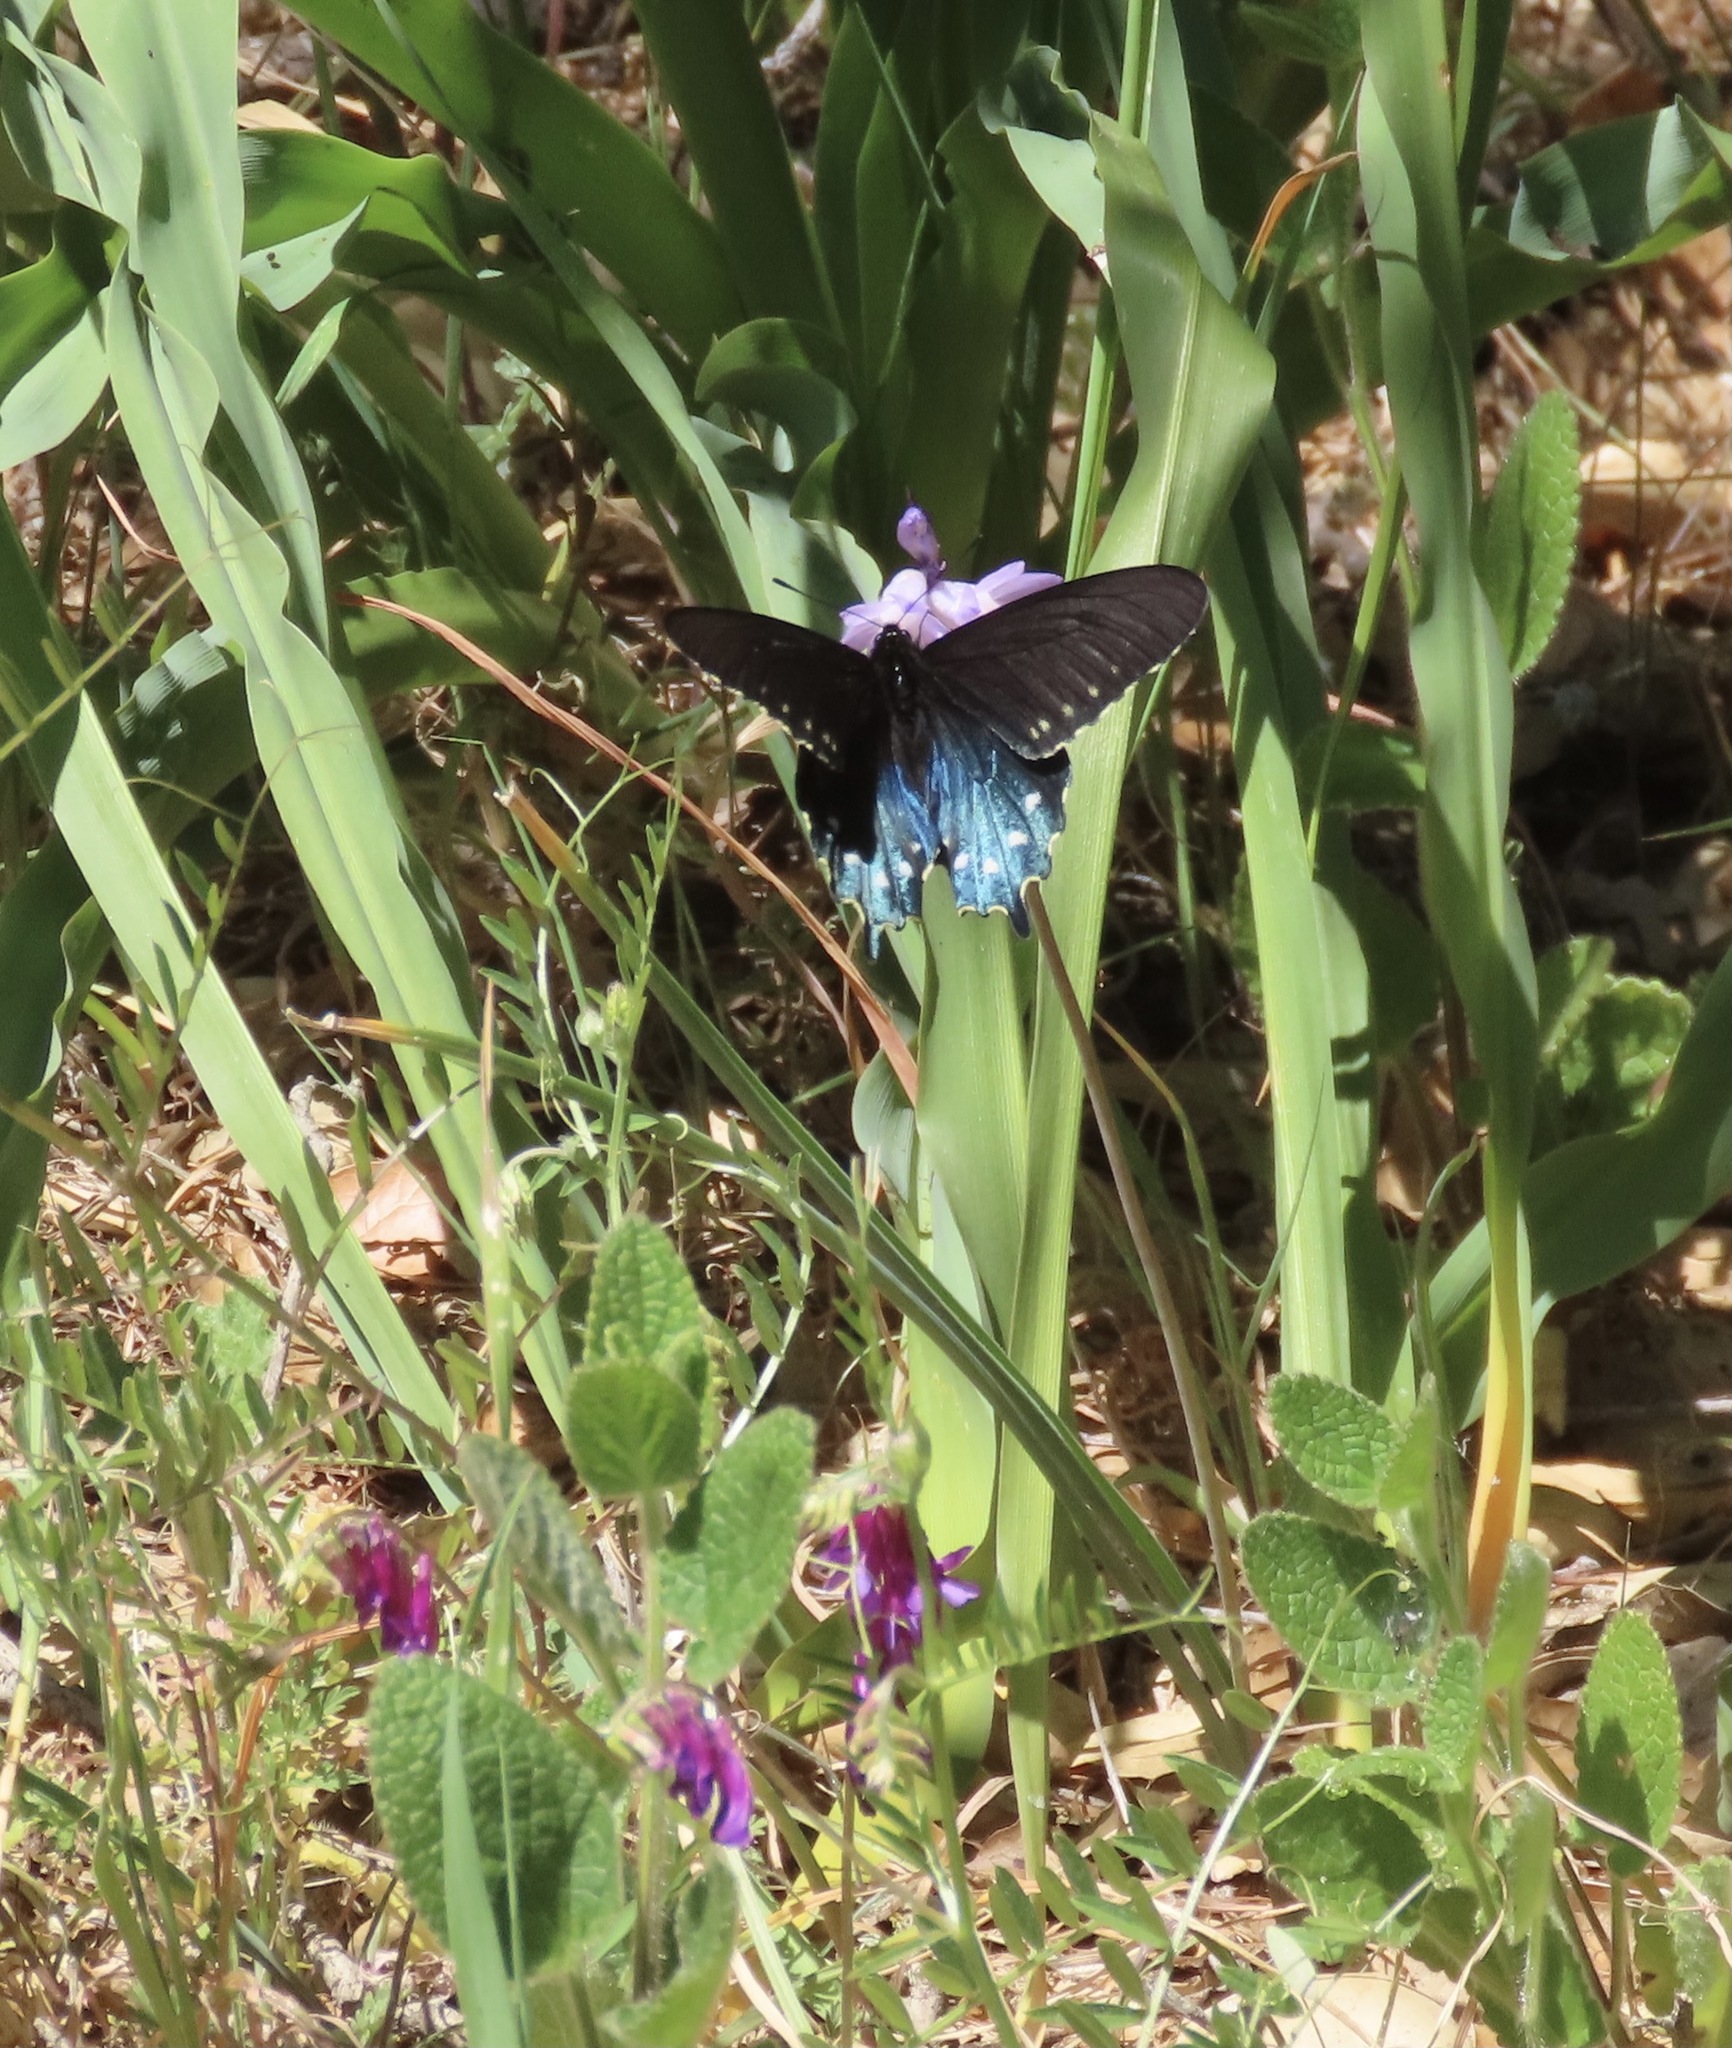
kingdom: Animalia
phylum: Arthropoda
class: Insecta
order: Lepidoptera
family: Papilionidae
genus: Battus
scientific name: Battus philenor
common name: Pipevine swallowtail
